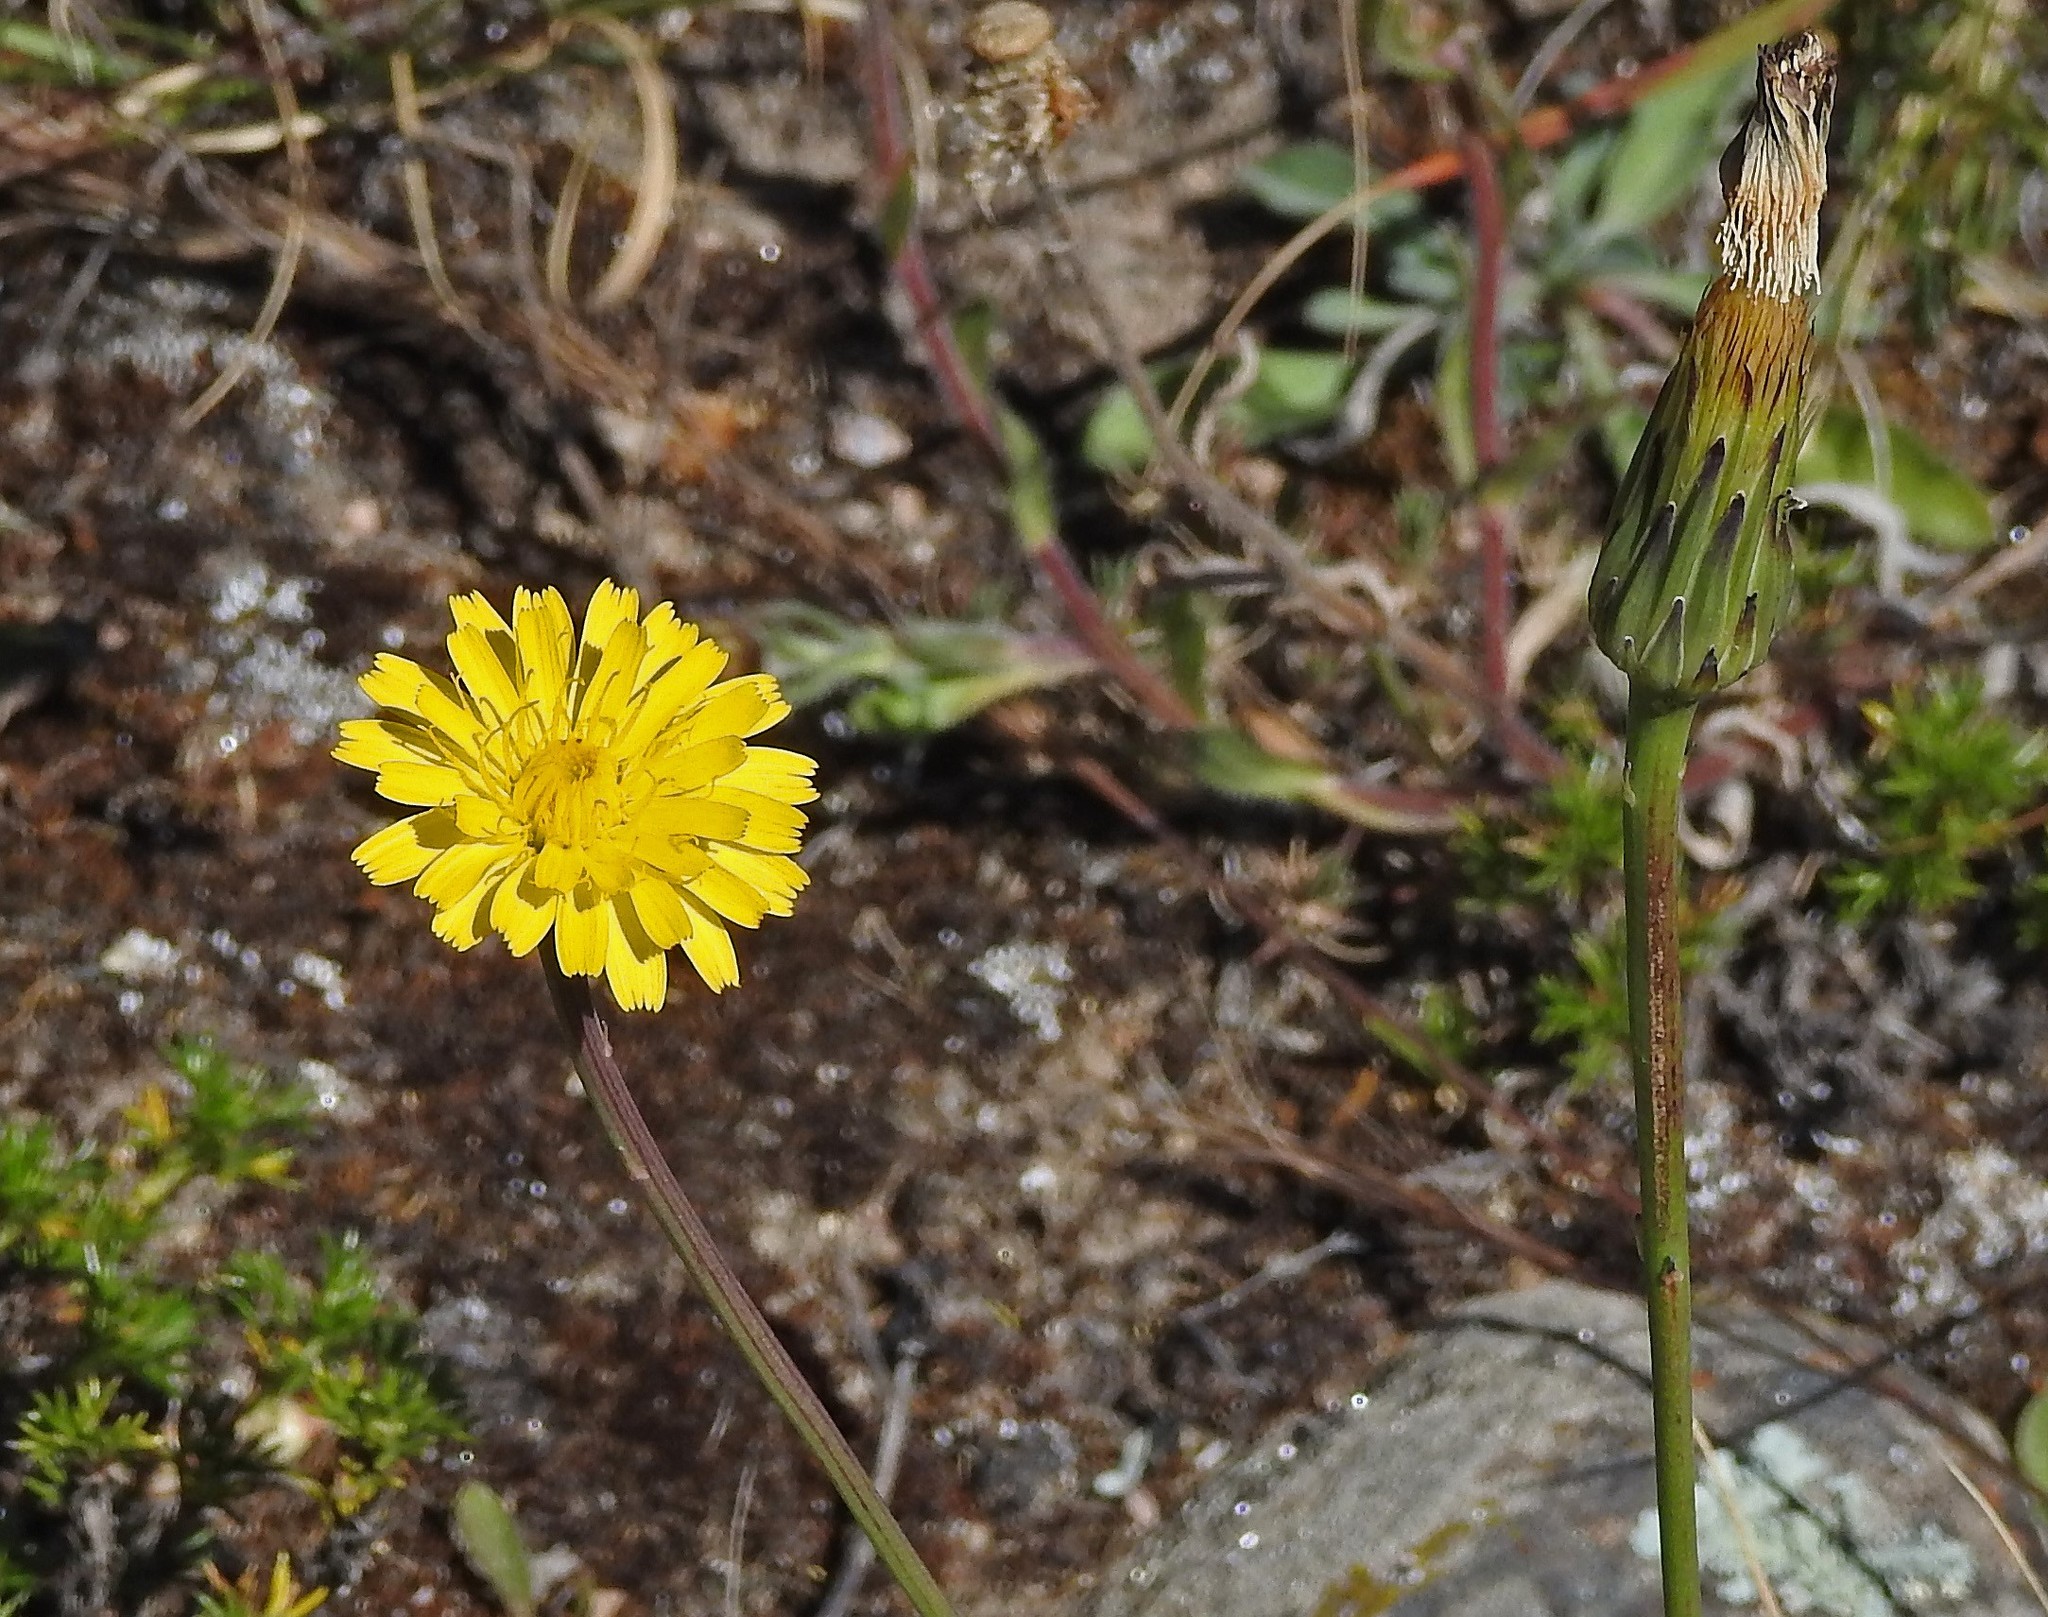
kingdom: Plantae
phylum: Tracheophyta
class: Magnoliopsida
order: Asterales
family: Asteraceae
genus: Hypochaeris
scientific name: Hypochaeris radicata
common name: Flatweed
